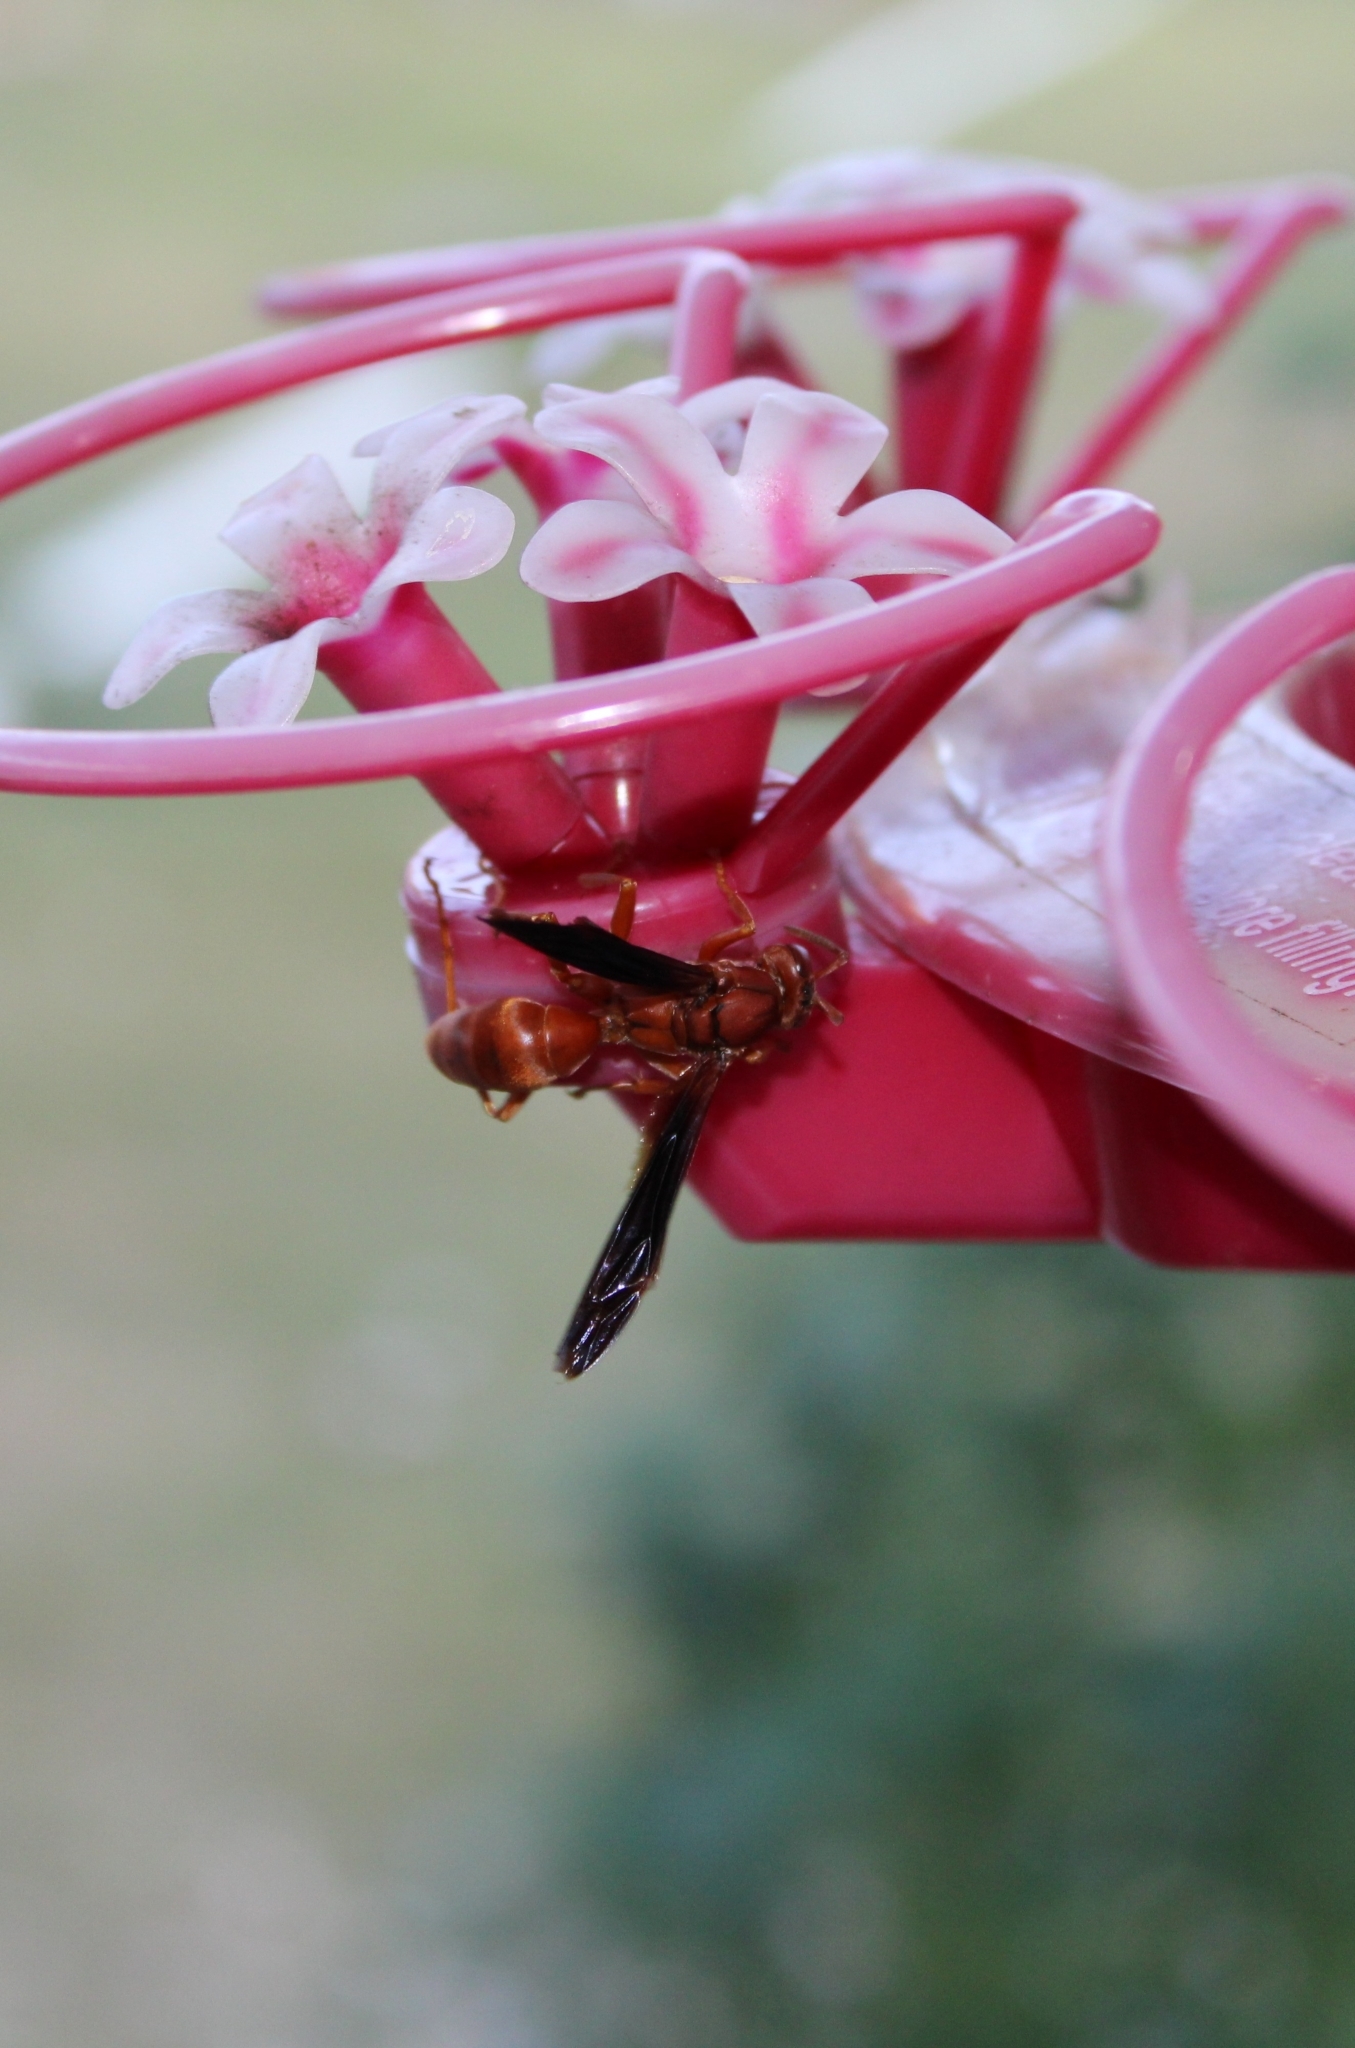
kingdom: Animalia
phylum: Arthropoda
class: Insecta
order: Hymenoptera
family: Vespidae
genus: Fuscopolistes
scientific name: Fuscopolistes
